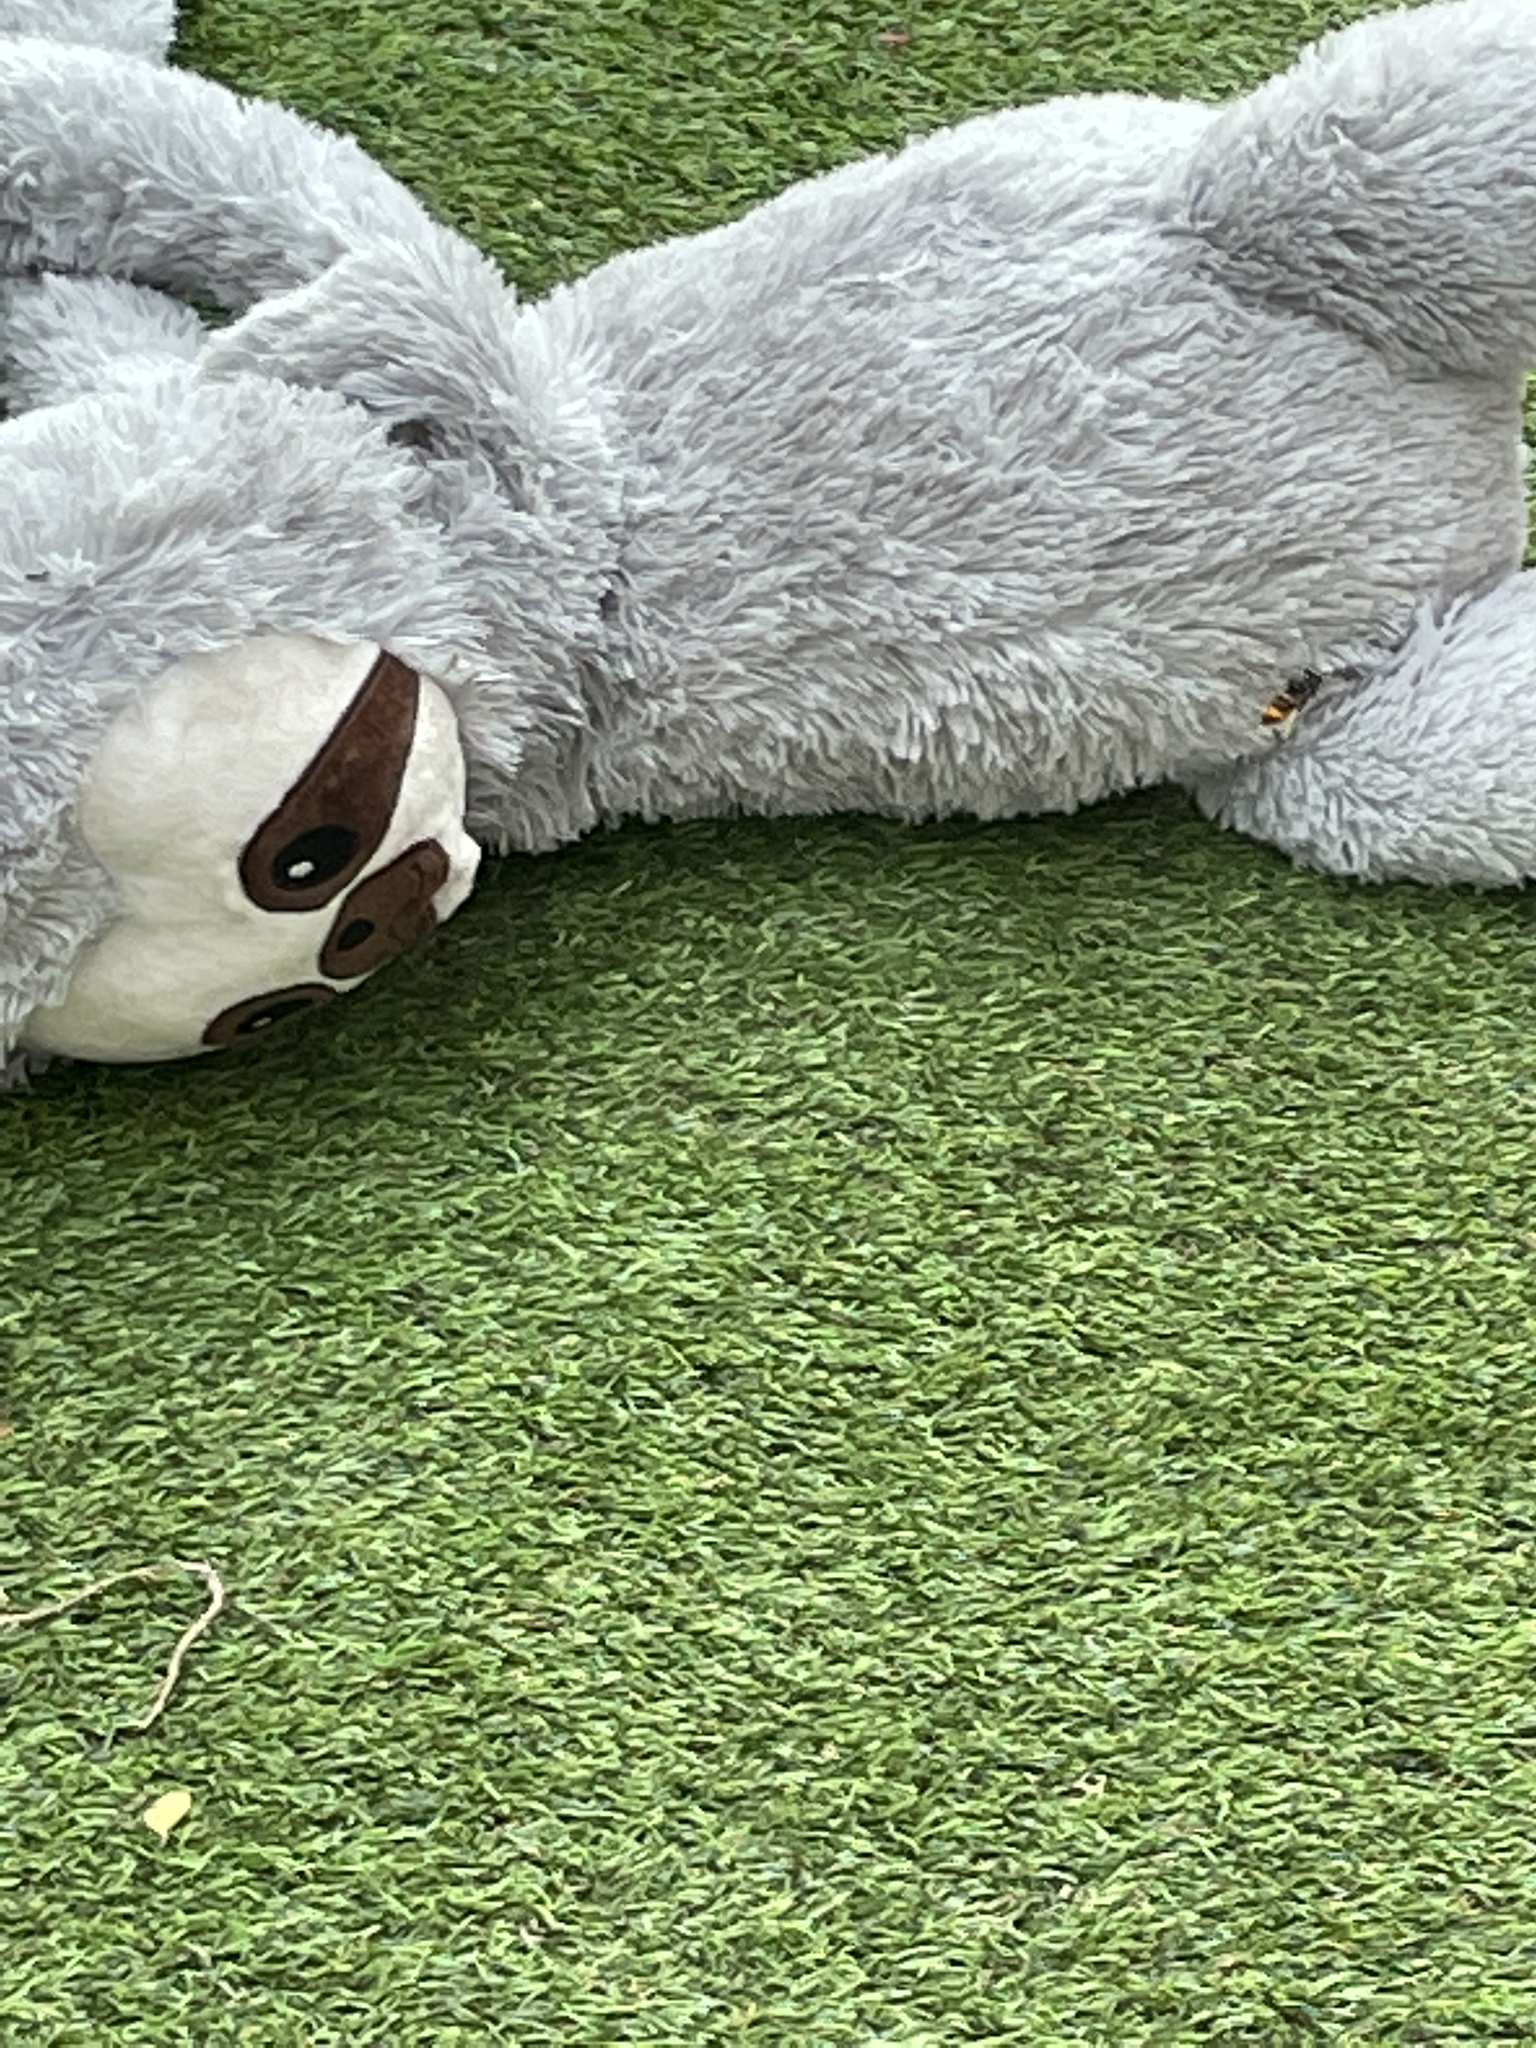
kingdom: Animalia
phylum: Arthropoda
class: Insecta
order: Hymenoptera
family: Vespidae
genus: Vespa
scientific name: Vespa velutina
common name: Asian hornet
